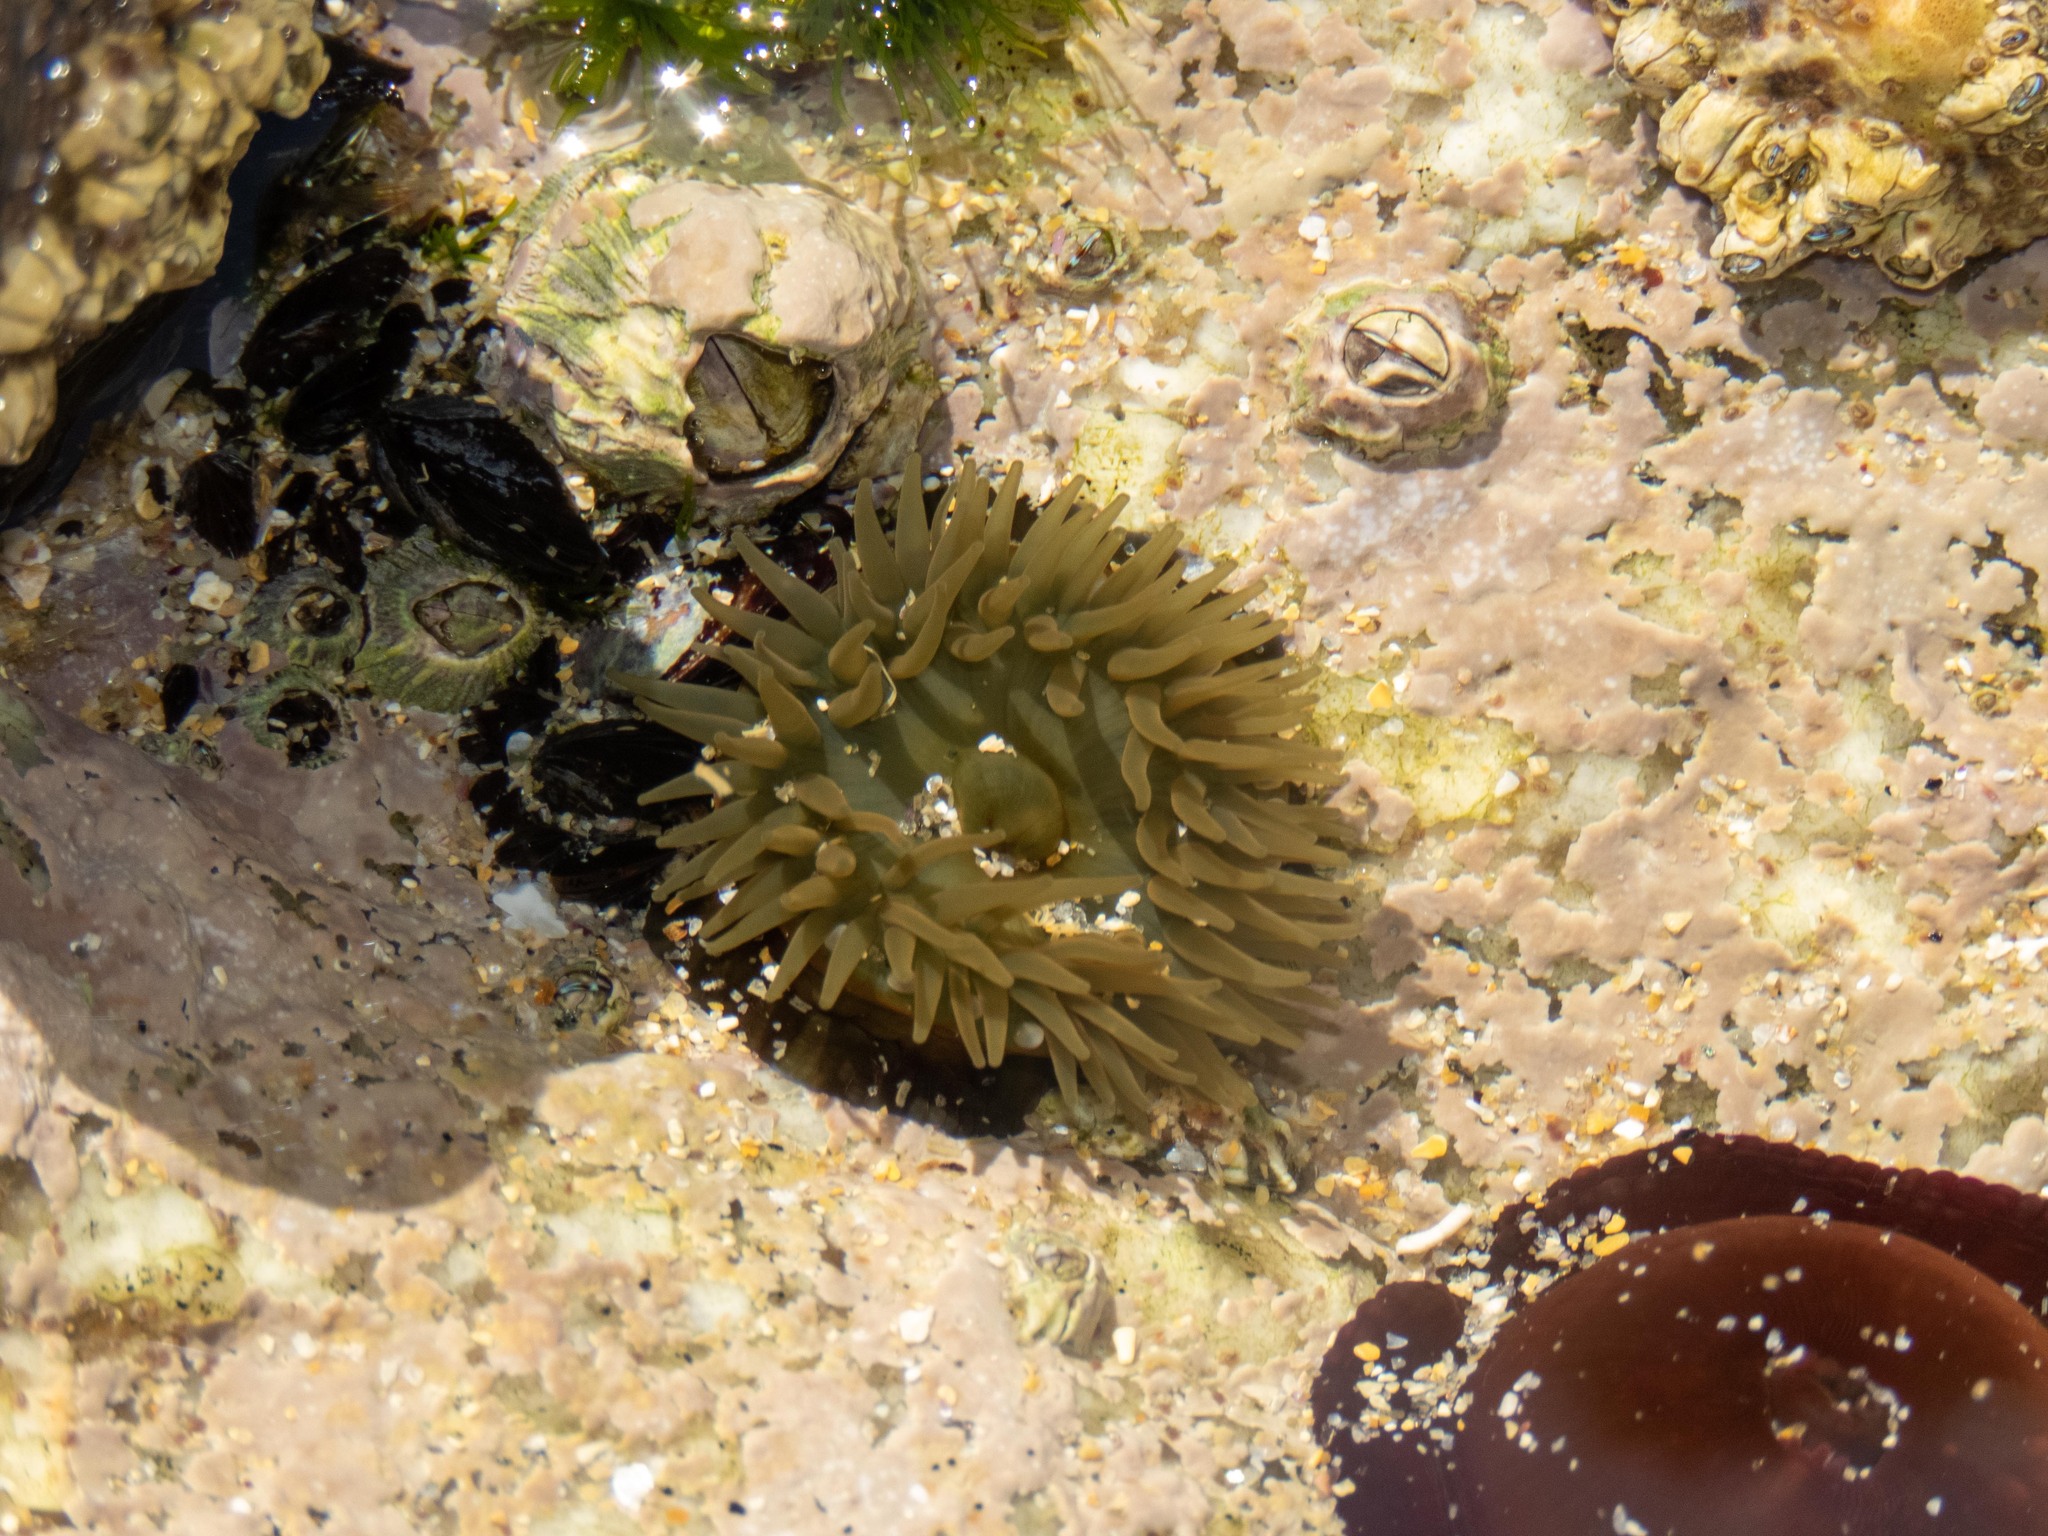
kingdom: Animalia
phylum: Cnidaria
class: Anthozoa
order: Actiniaria
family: Actiniidae
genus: Actinia
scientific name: Actinia equina
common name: Beadlet anemone
